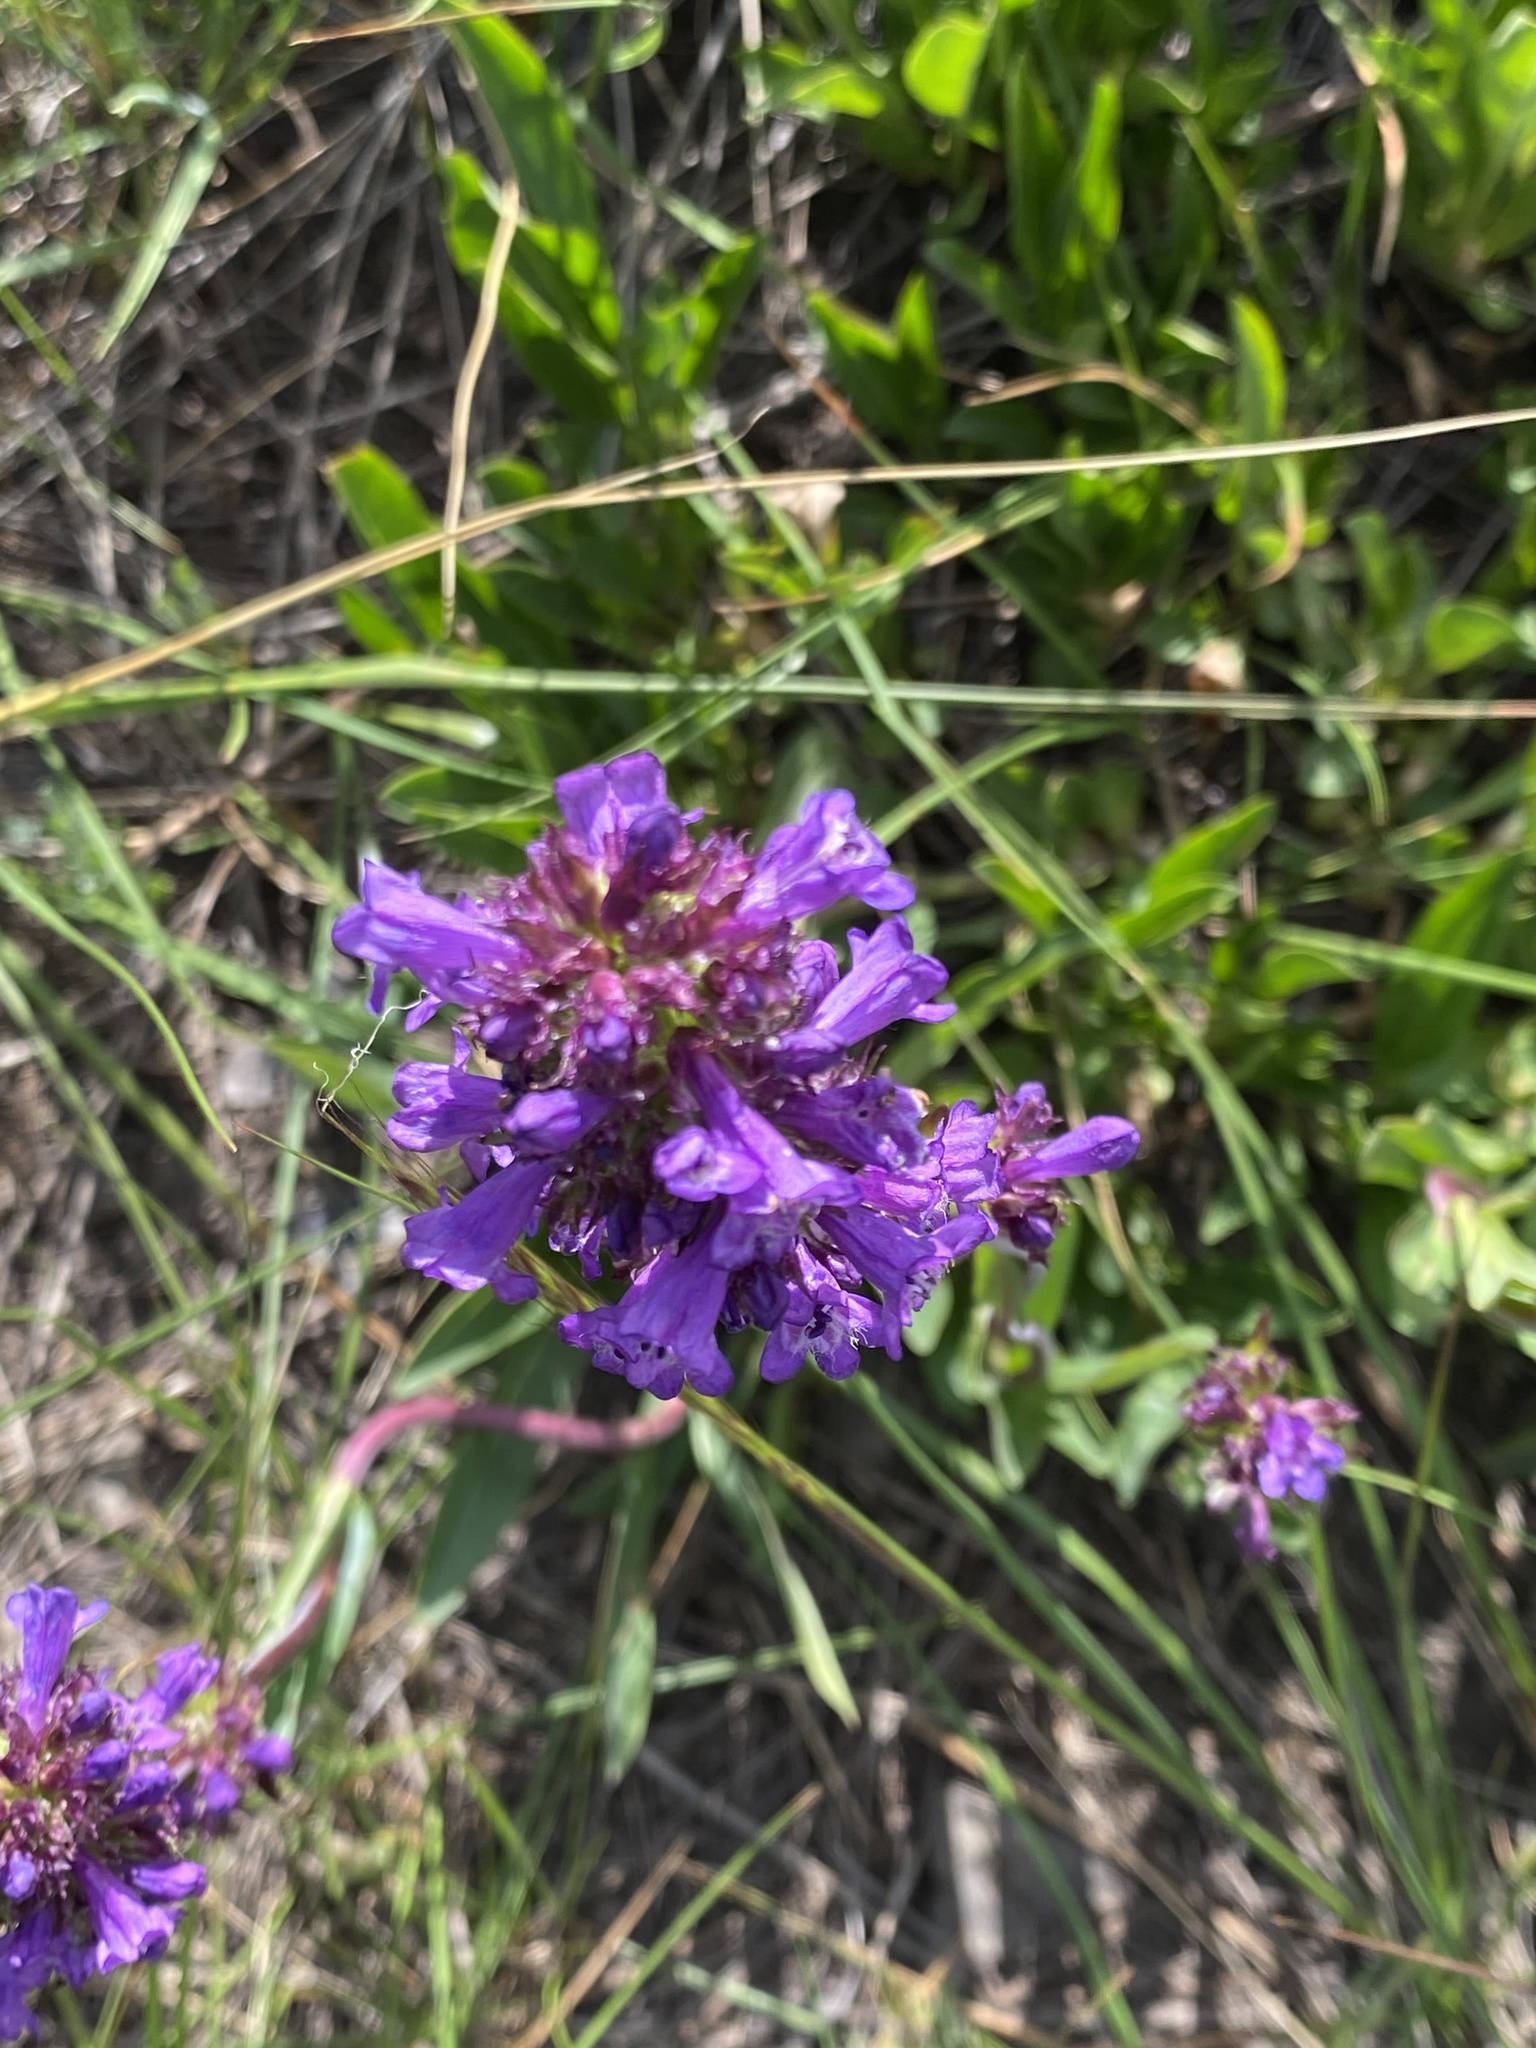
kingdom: Plantae
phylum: Tracheophyta
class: Magnoliopsida
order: Lamiales
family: Plantaginaceae
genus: Penstemon
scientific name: Penstemon rydbergii
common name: Rydberg's beardtongue
